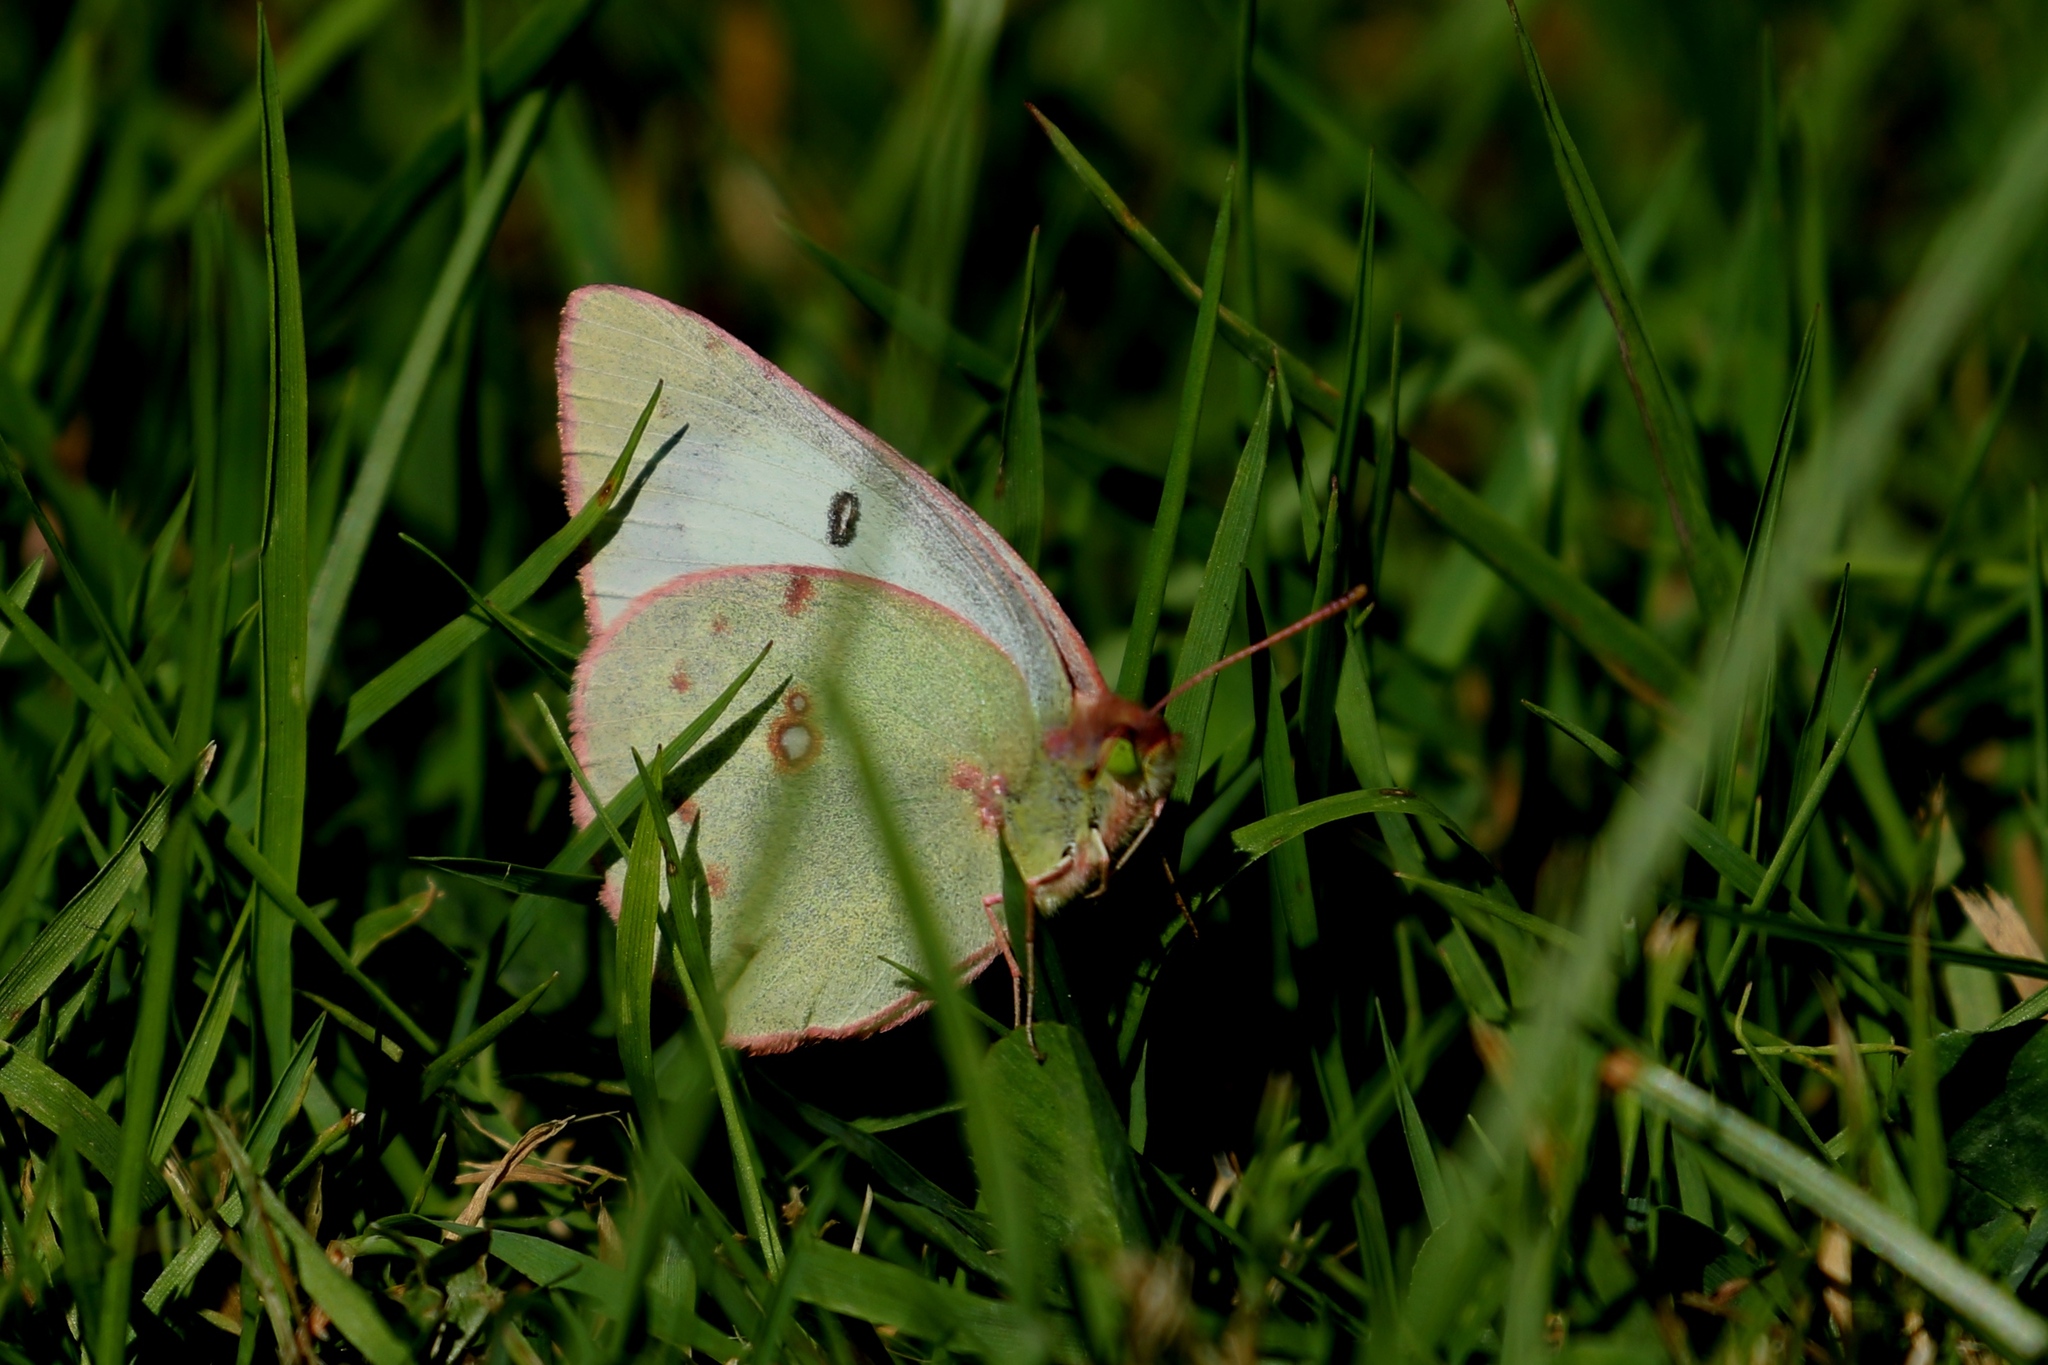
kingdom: Animalia
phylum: Arthropoda
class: Insecta
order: Lepidoptera
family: Pieridae
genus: Colias
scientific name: Colias philodice
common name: Clouded sulphur
